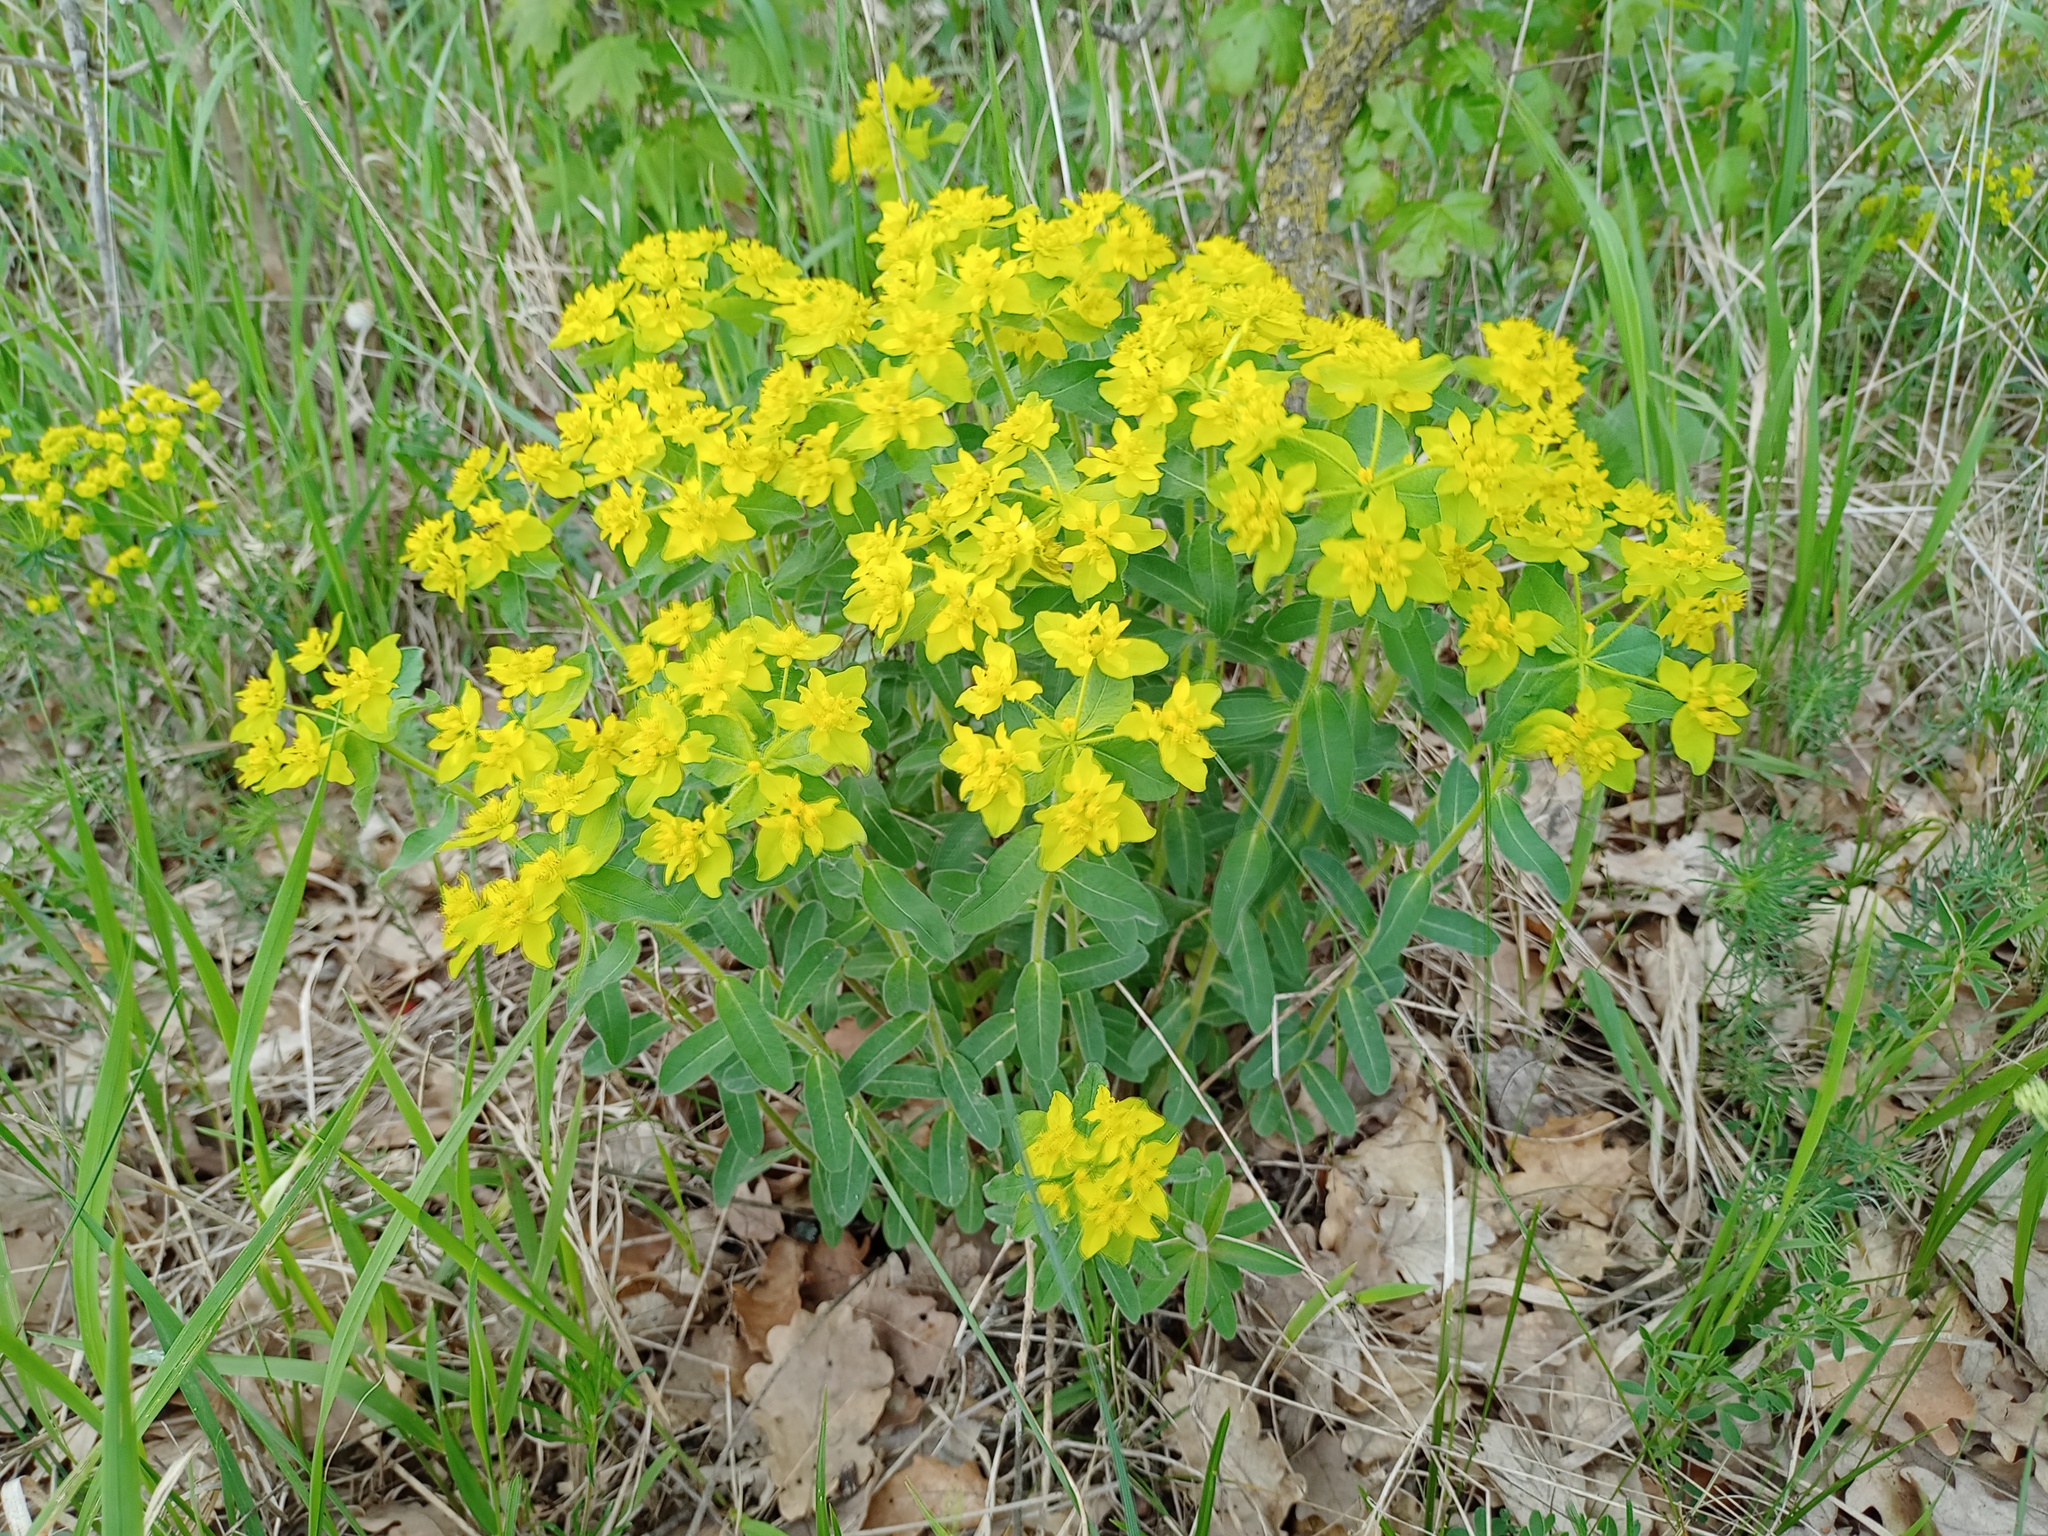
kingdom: Plantae
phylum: Tracheophyta
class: Magnoliopsida
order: Malpighiales
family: Euphorbiaceae
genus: Euphorbia
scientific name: Euphorbia epithymoides
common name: Cushion spurge
